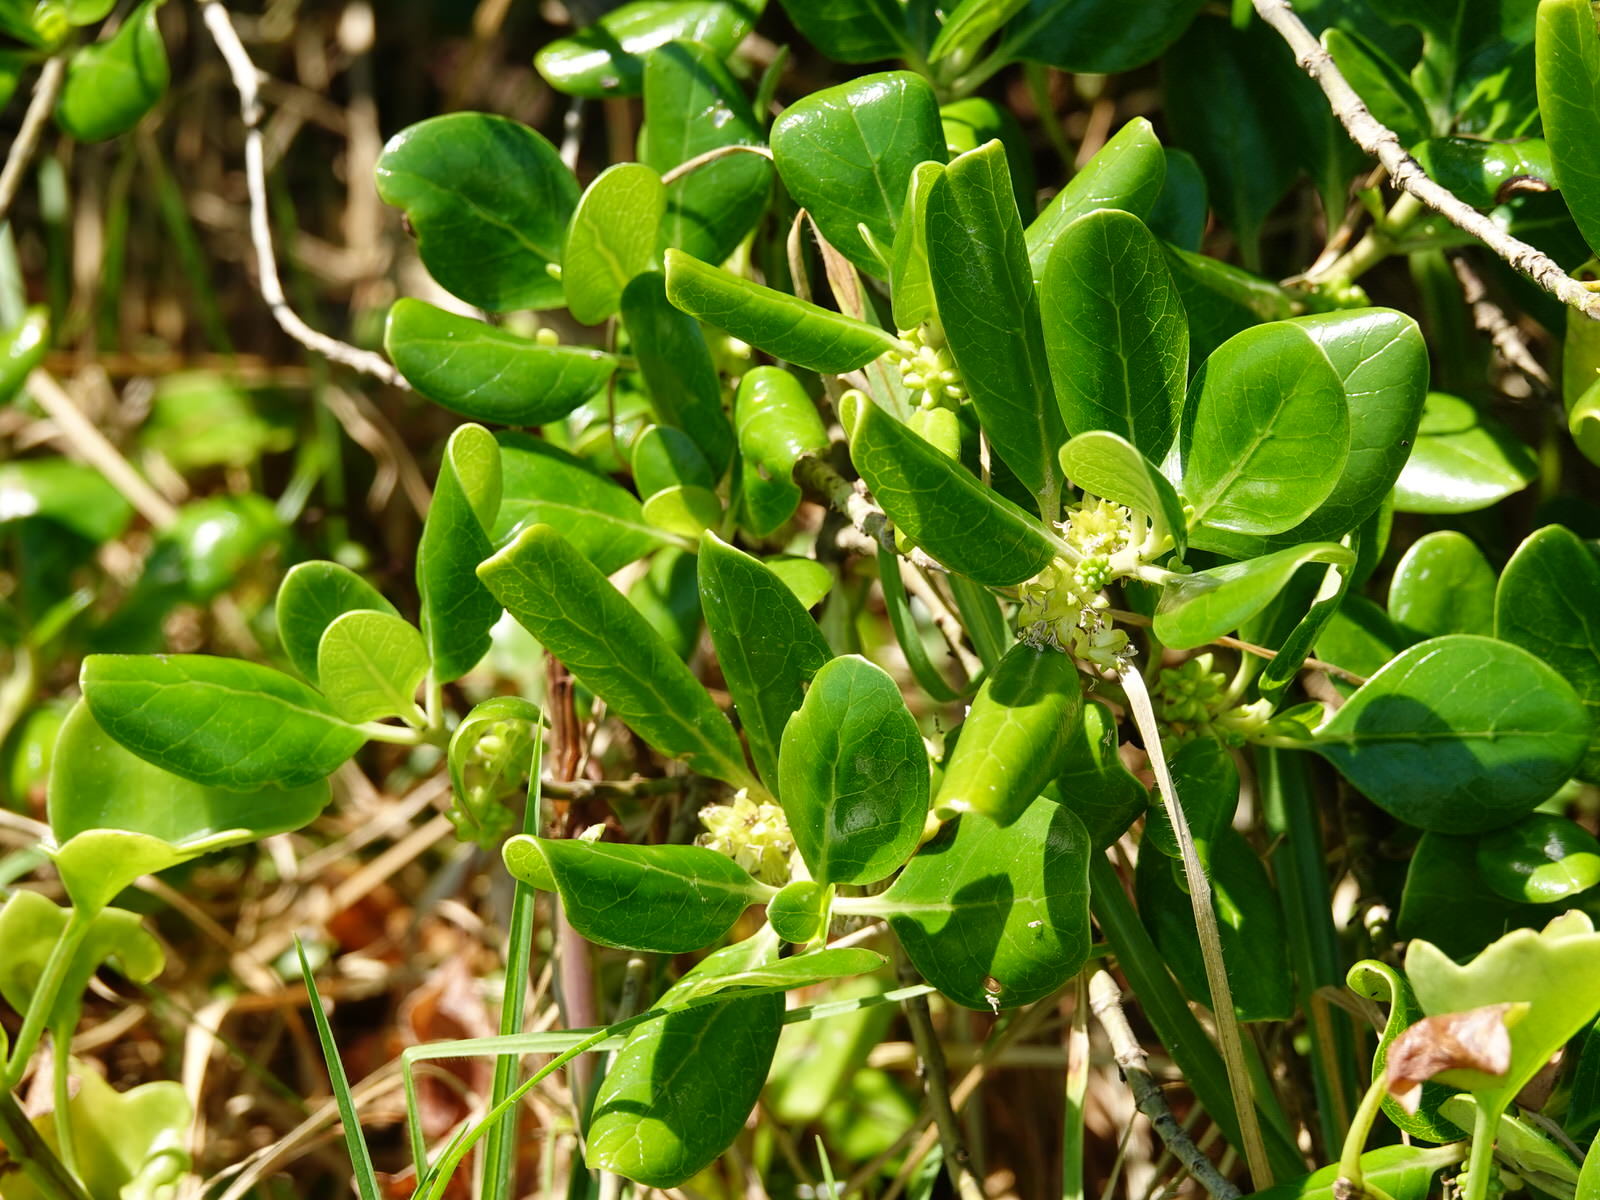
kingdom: Plantae
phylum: Tracheophyta
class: Magnoliopsida
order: Gentianales
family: Rubiaceae
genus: Coprosma
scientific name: Coprosma repens
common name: Tree bedstraw
